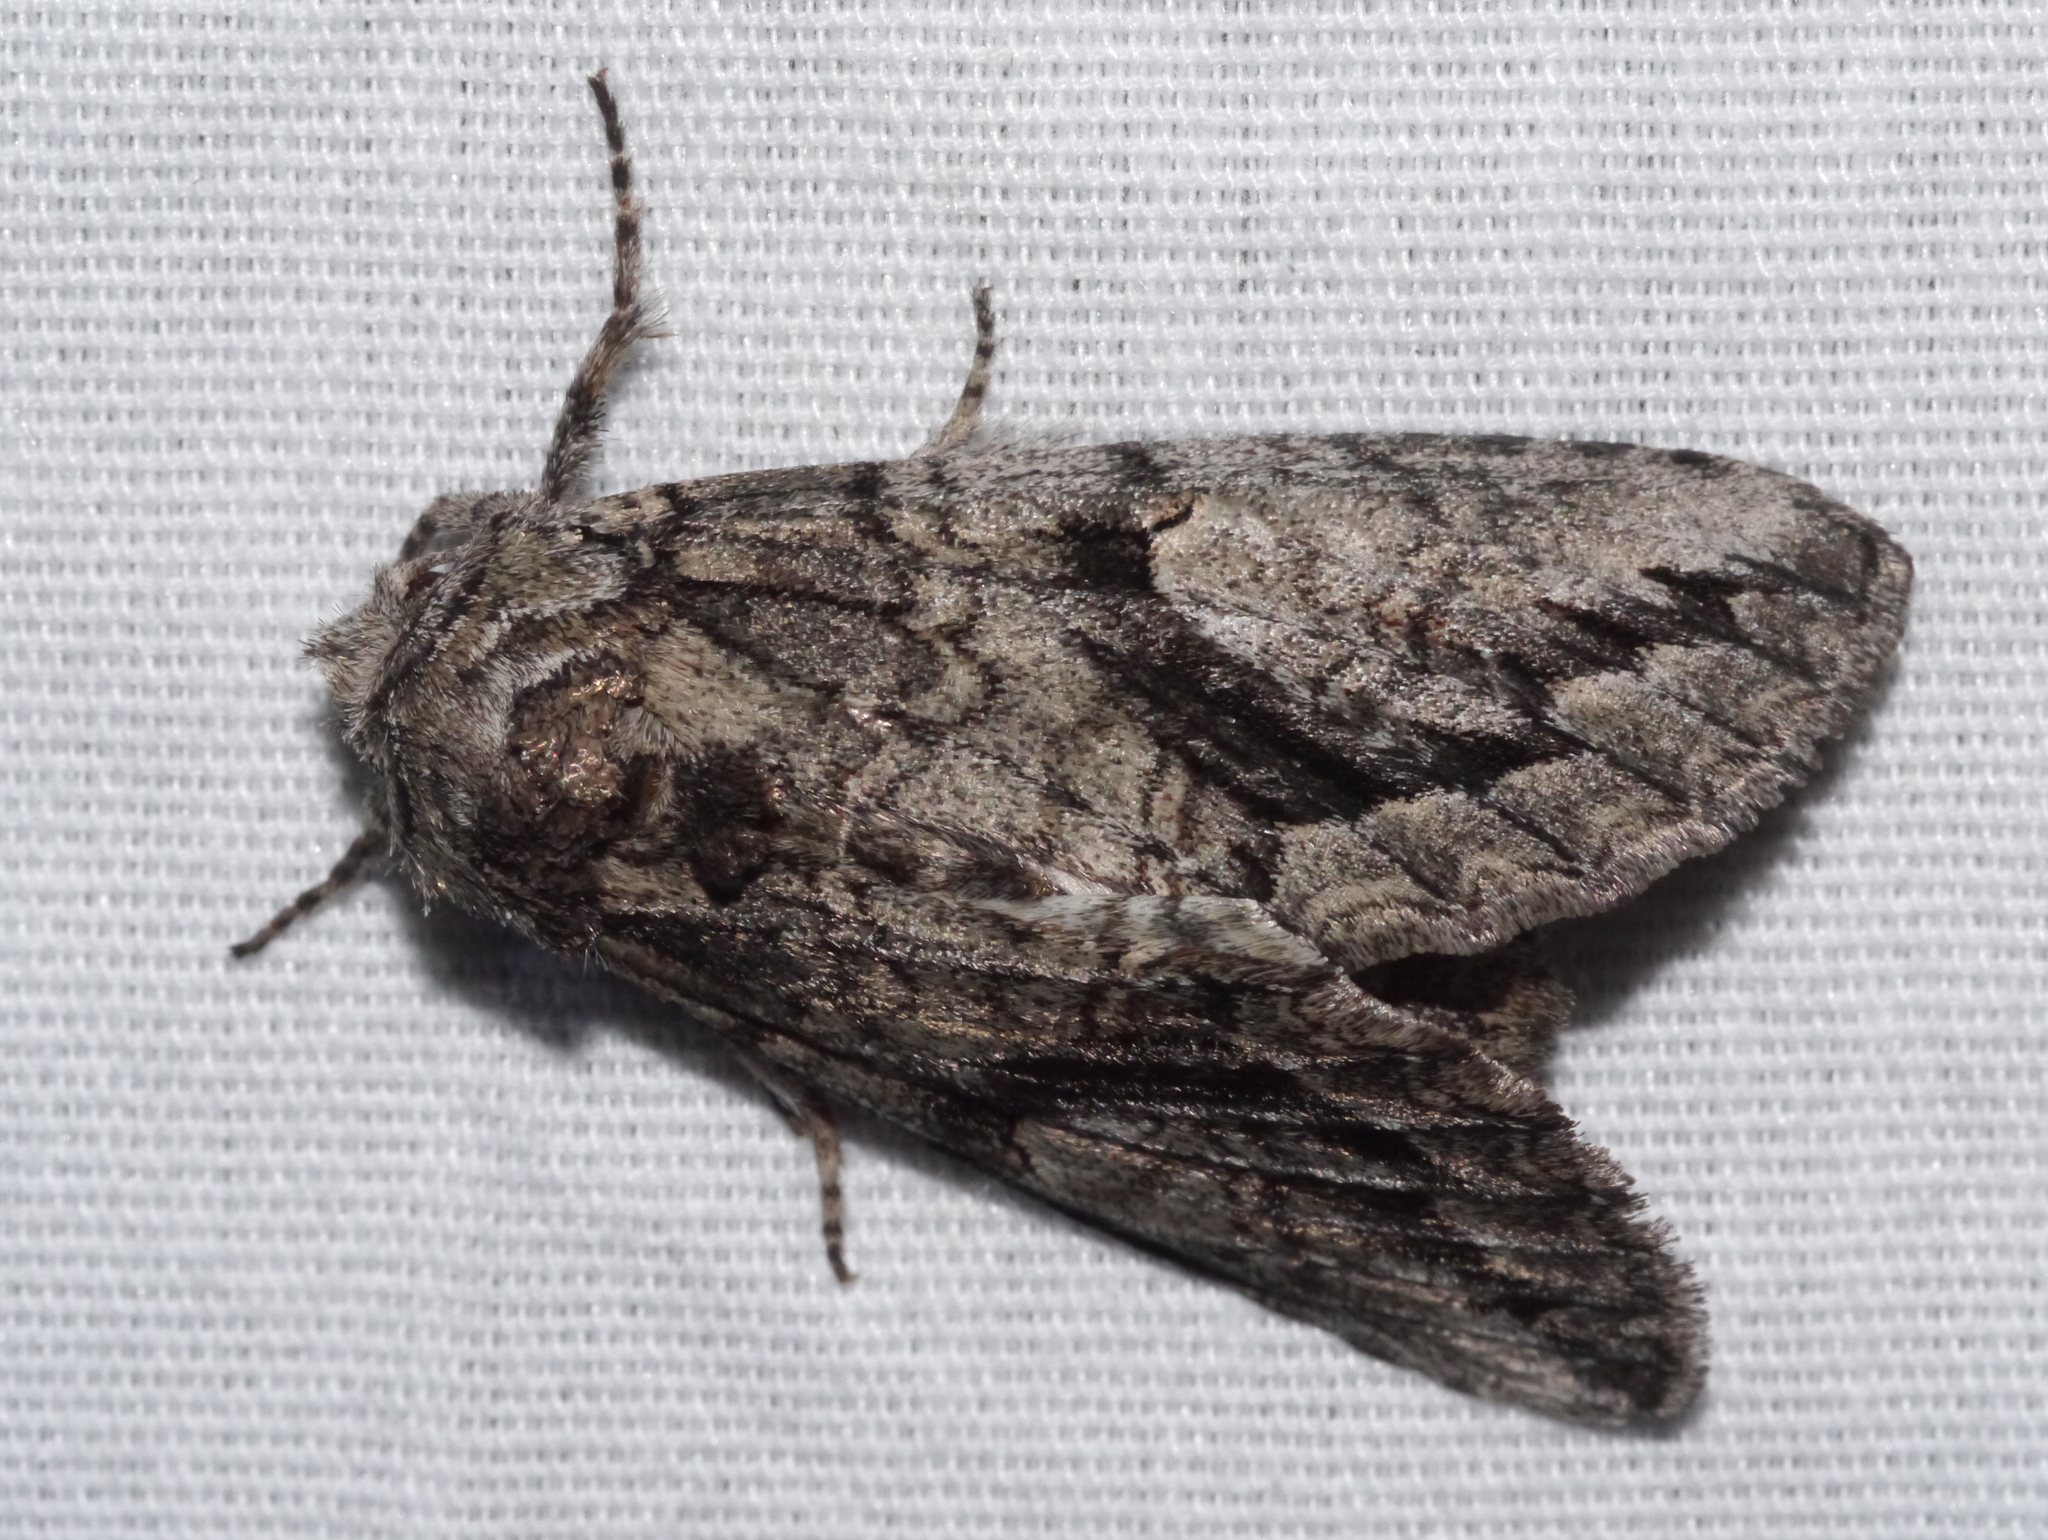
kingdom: Animalia
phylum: Arthropoda
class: Insecta
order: Lepidoptera
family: Notodontidae
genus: Heterocampa
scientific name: Heterocampa averna
